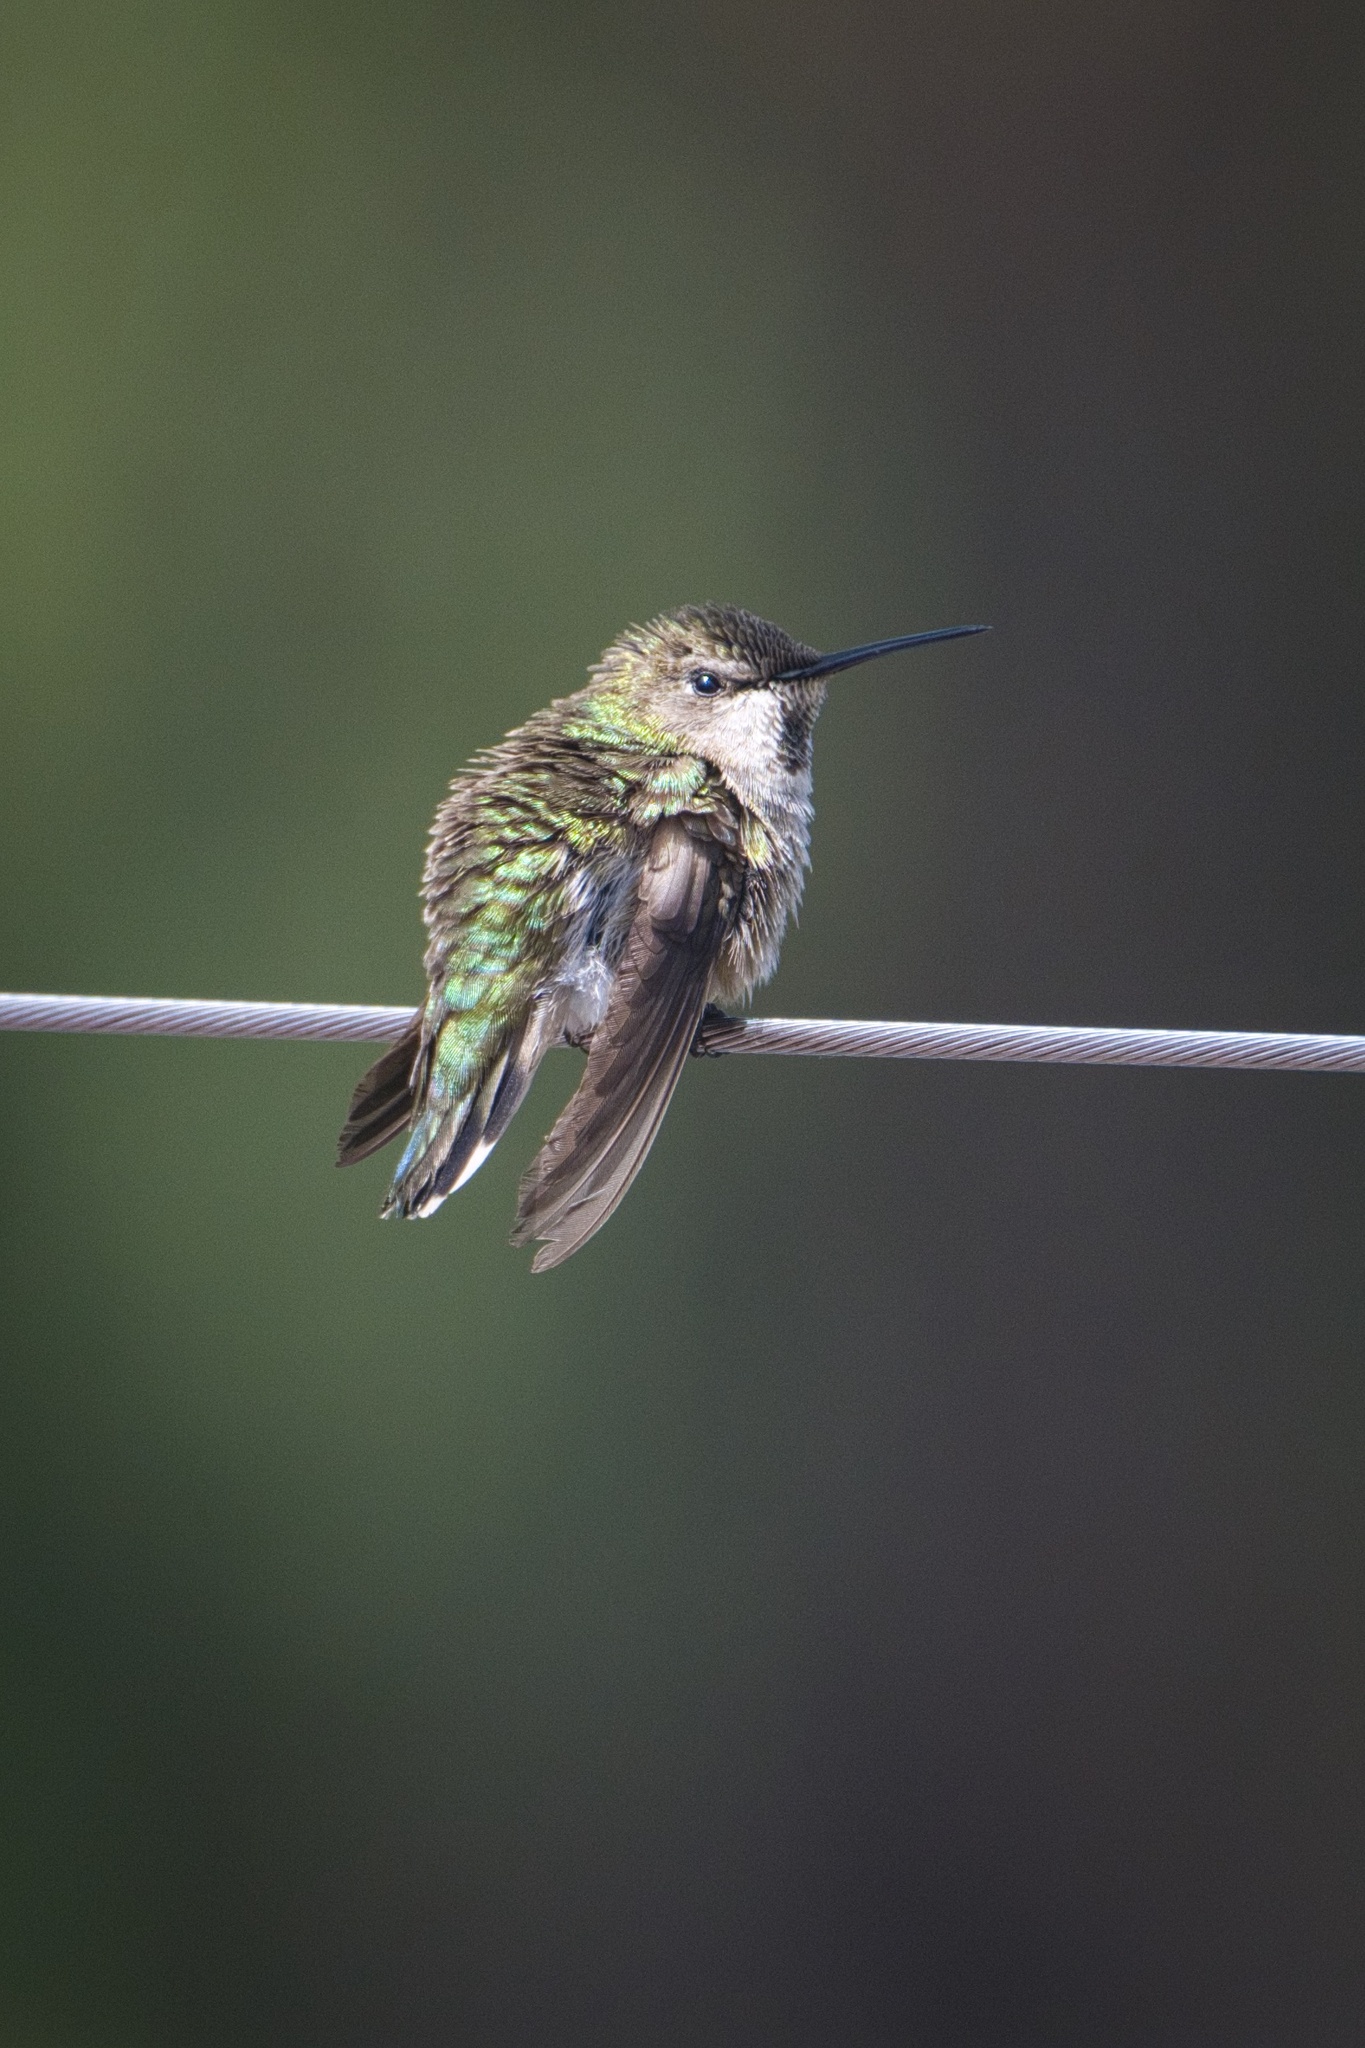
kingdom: Animalia
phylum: Chordata
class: Aves
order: Apodiformes
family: Trochilidae
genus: Calypte
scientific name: Calypte anna
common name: Anna's hummingbird
